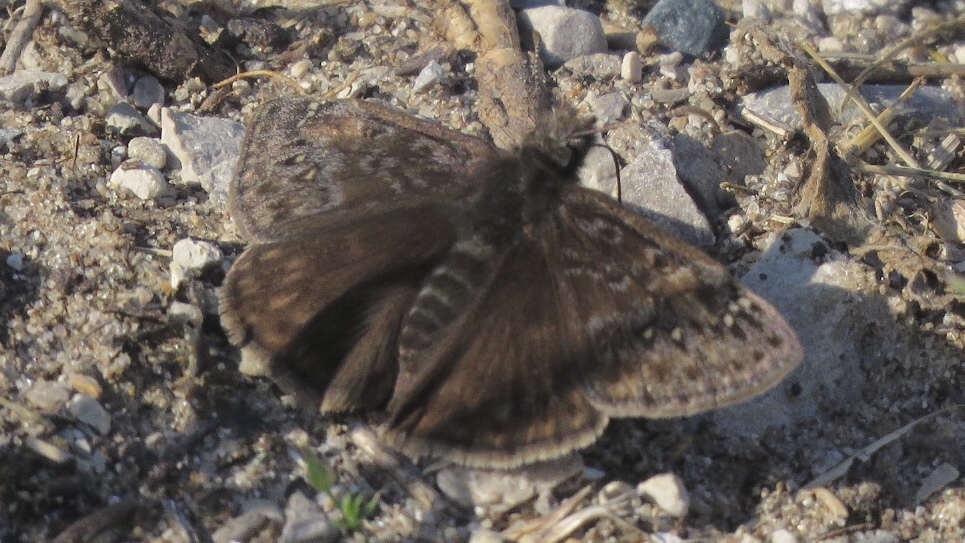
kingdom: Animalia
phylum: Arthropoda
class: Insecta
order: Lepidoptera
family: Hesperiidae
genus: Erynnis
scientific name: Erynnis juvenalis
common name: Juvenal's duskywing
